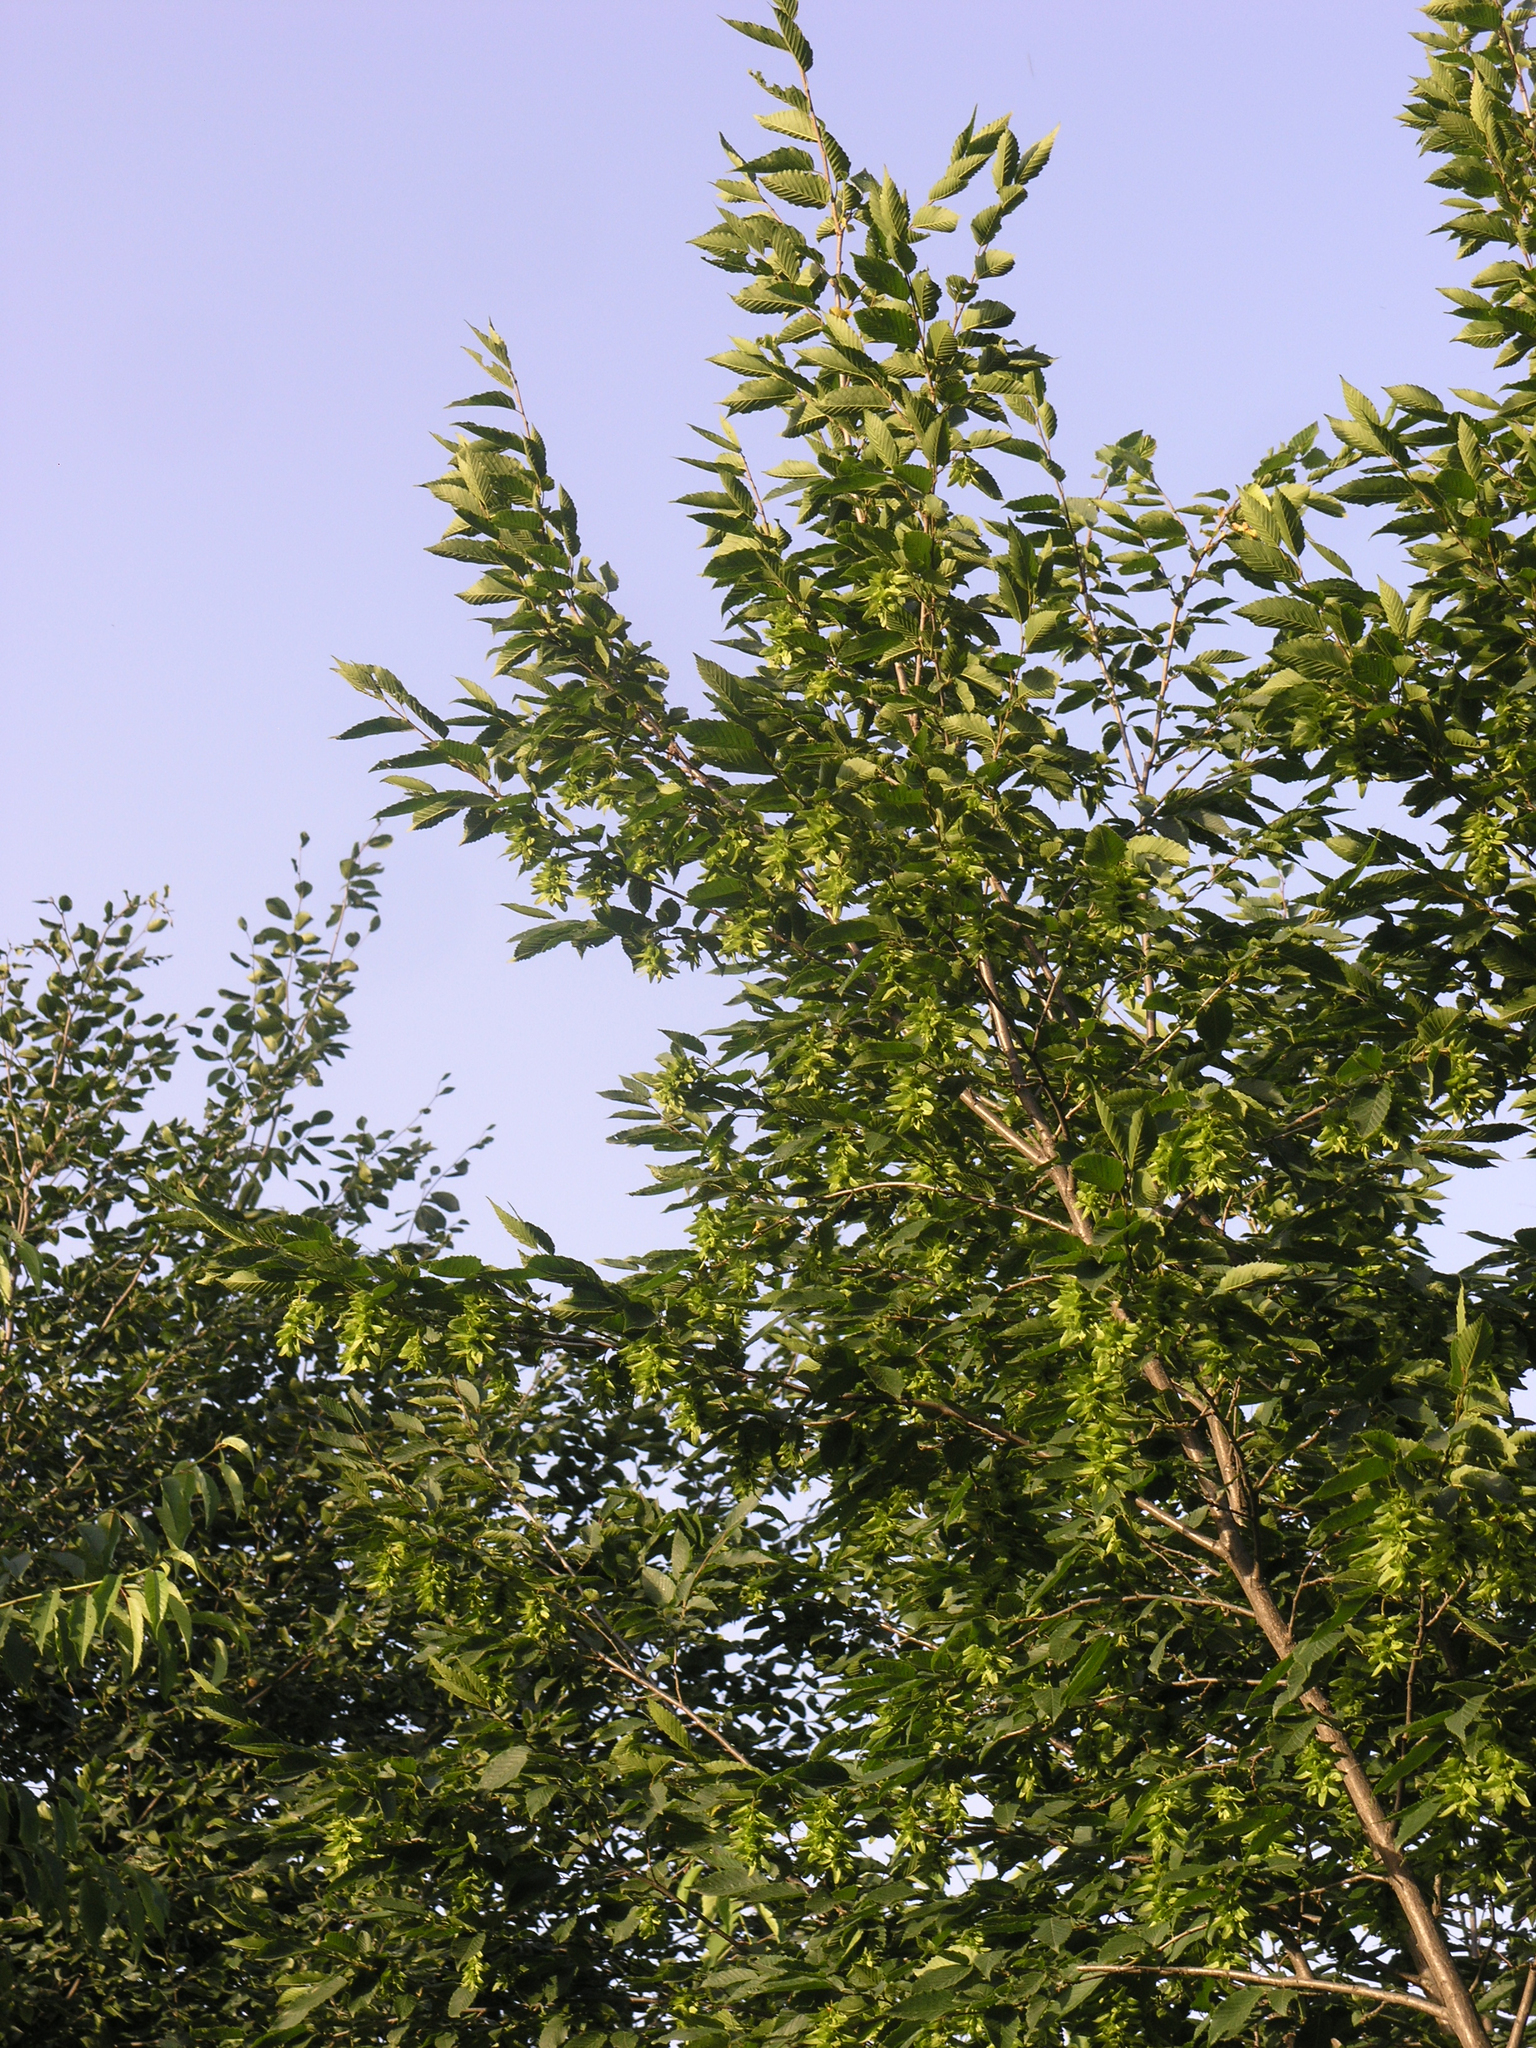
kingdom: Plantae
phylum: Tracheophyta
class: Magnoliopsida
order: Fagales
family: Betulaceae
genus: Carpinus
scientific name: Carpinus betulus
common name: Hornbeam
